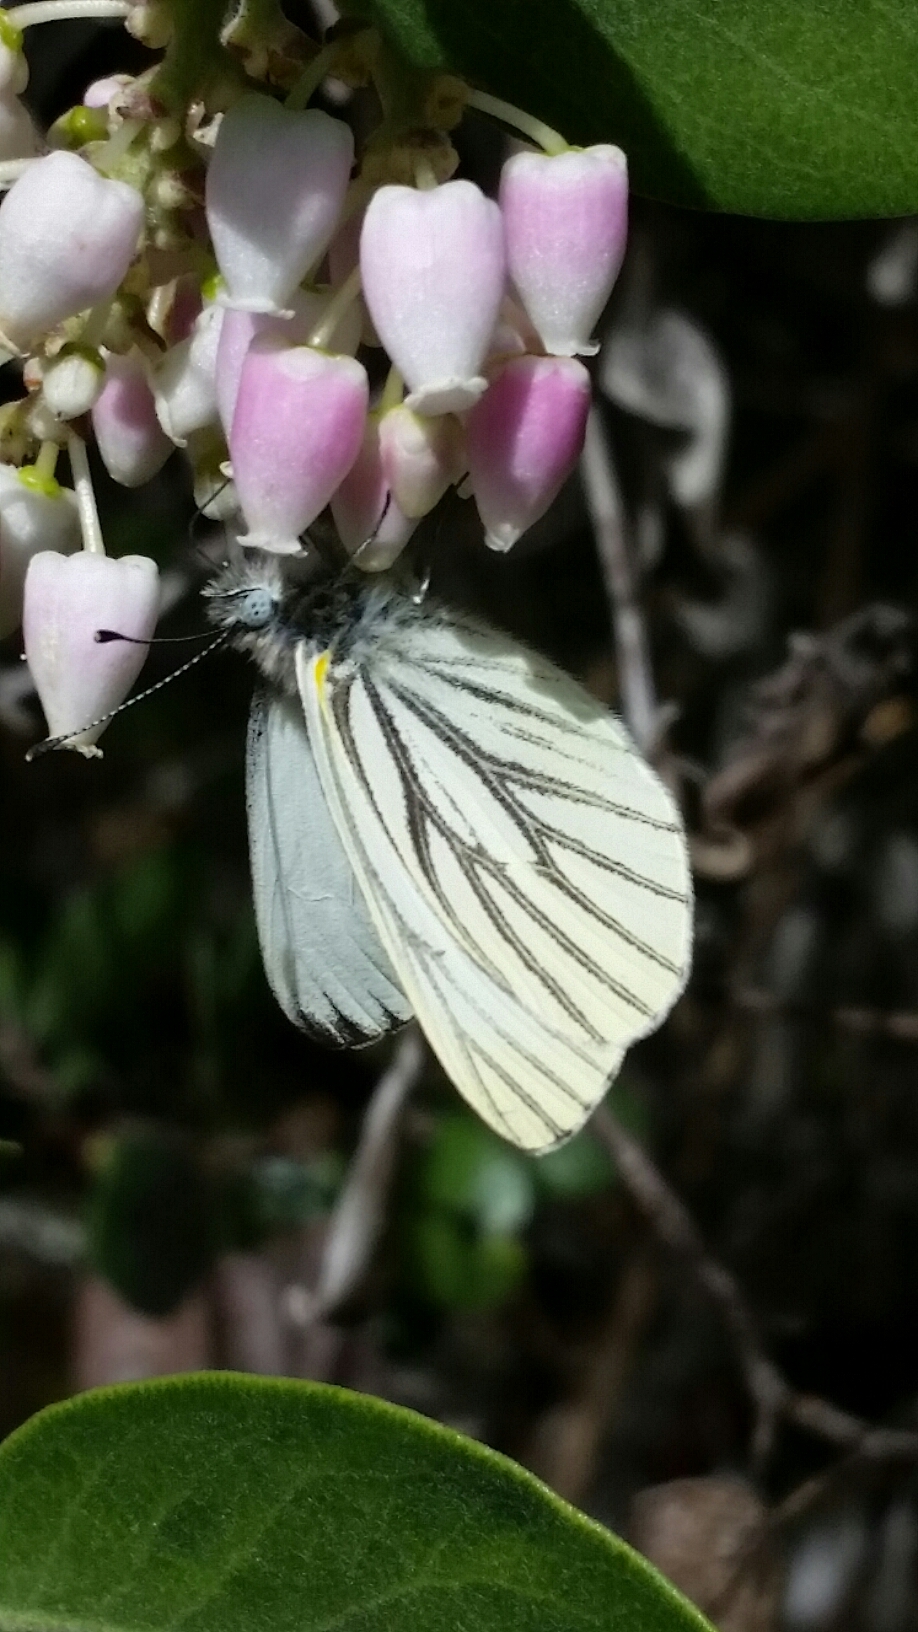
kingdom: Animalia
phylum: Arthropoda
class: Insecta
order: Lepidoptera
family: Pieridae
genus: Pieris
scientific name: Pieris marginalis
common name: Margined white
